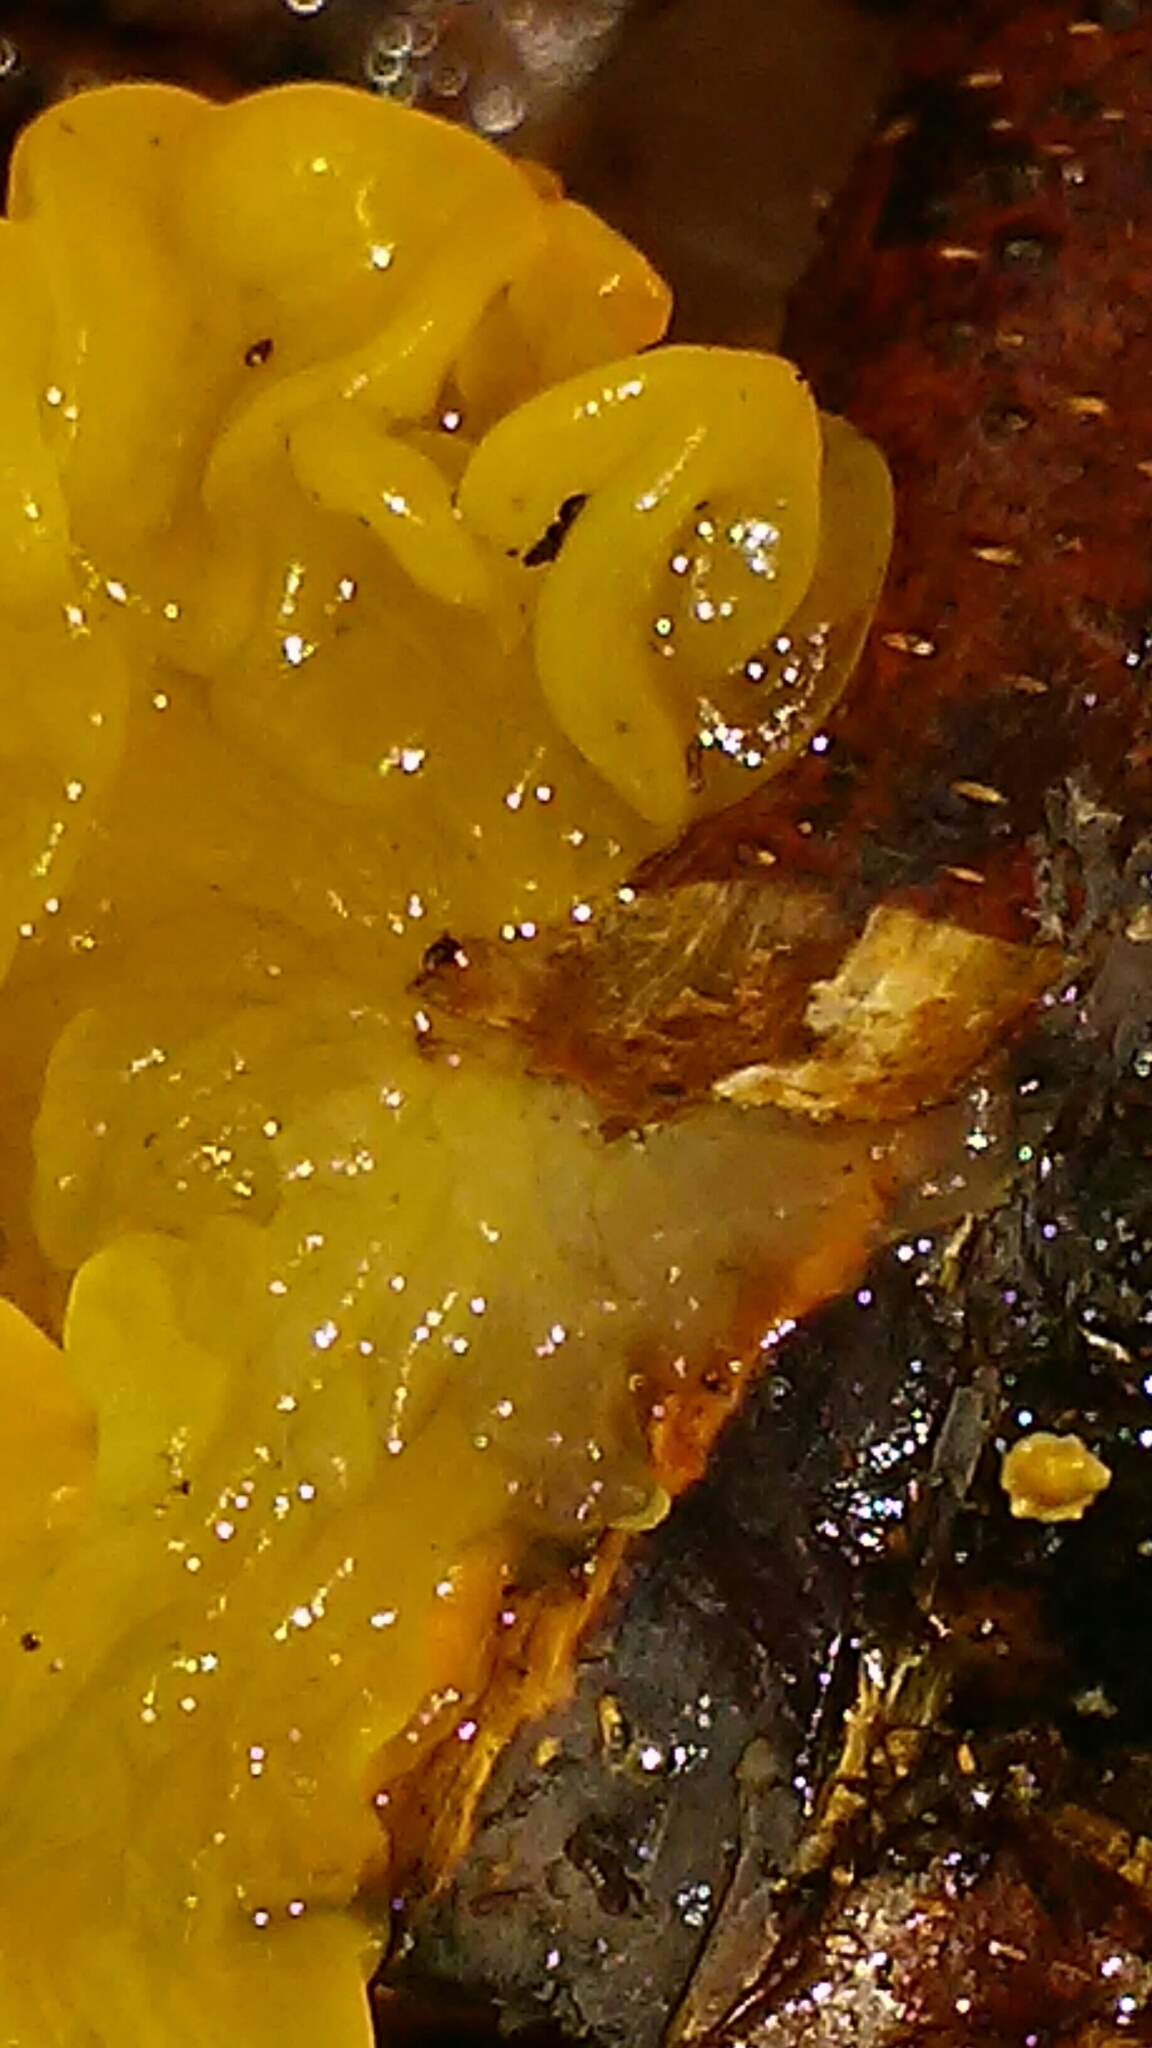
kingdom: Fungi
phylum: Basidiomycota
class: Tremellomycetes
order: Tremellales
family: Tremellaceae
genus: Tremella
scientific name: Tremella mesenterica
